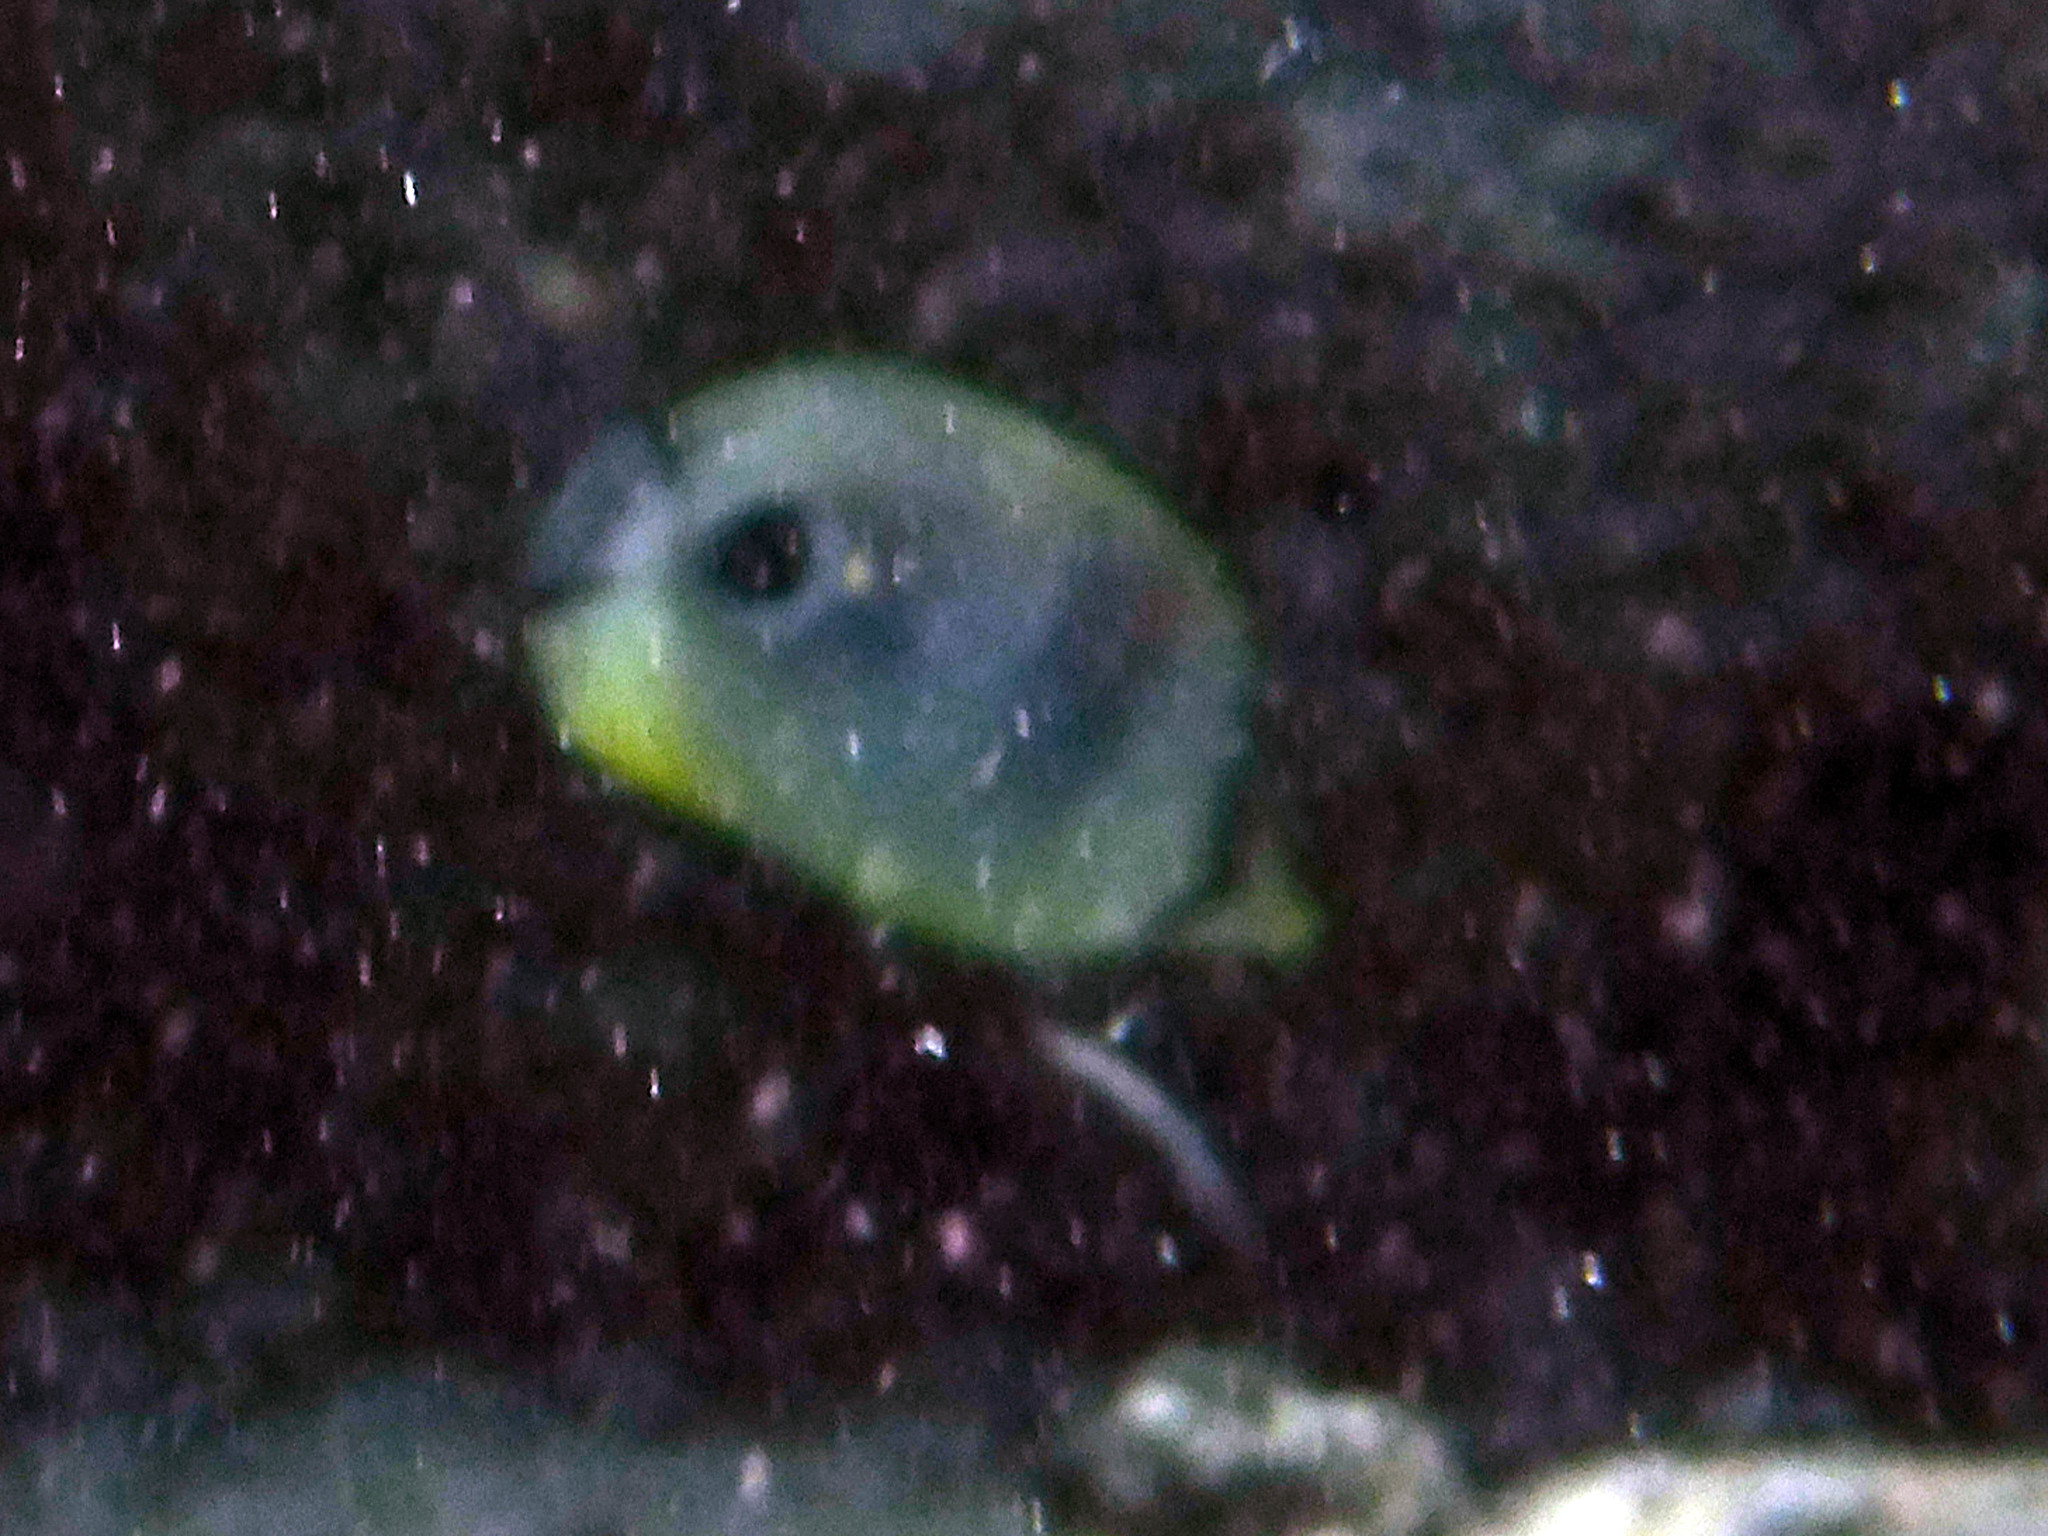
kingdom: Animalia
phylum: Chordata
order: Perciformes
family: Chaetodontidae
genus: Chaetodon
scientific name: Chaetodon capistratus
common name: Kete
